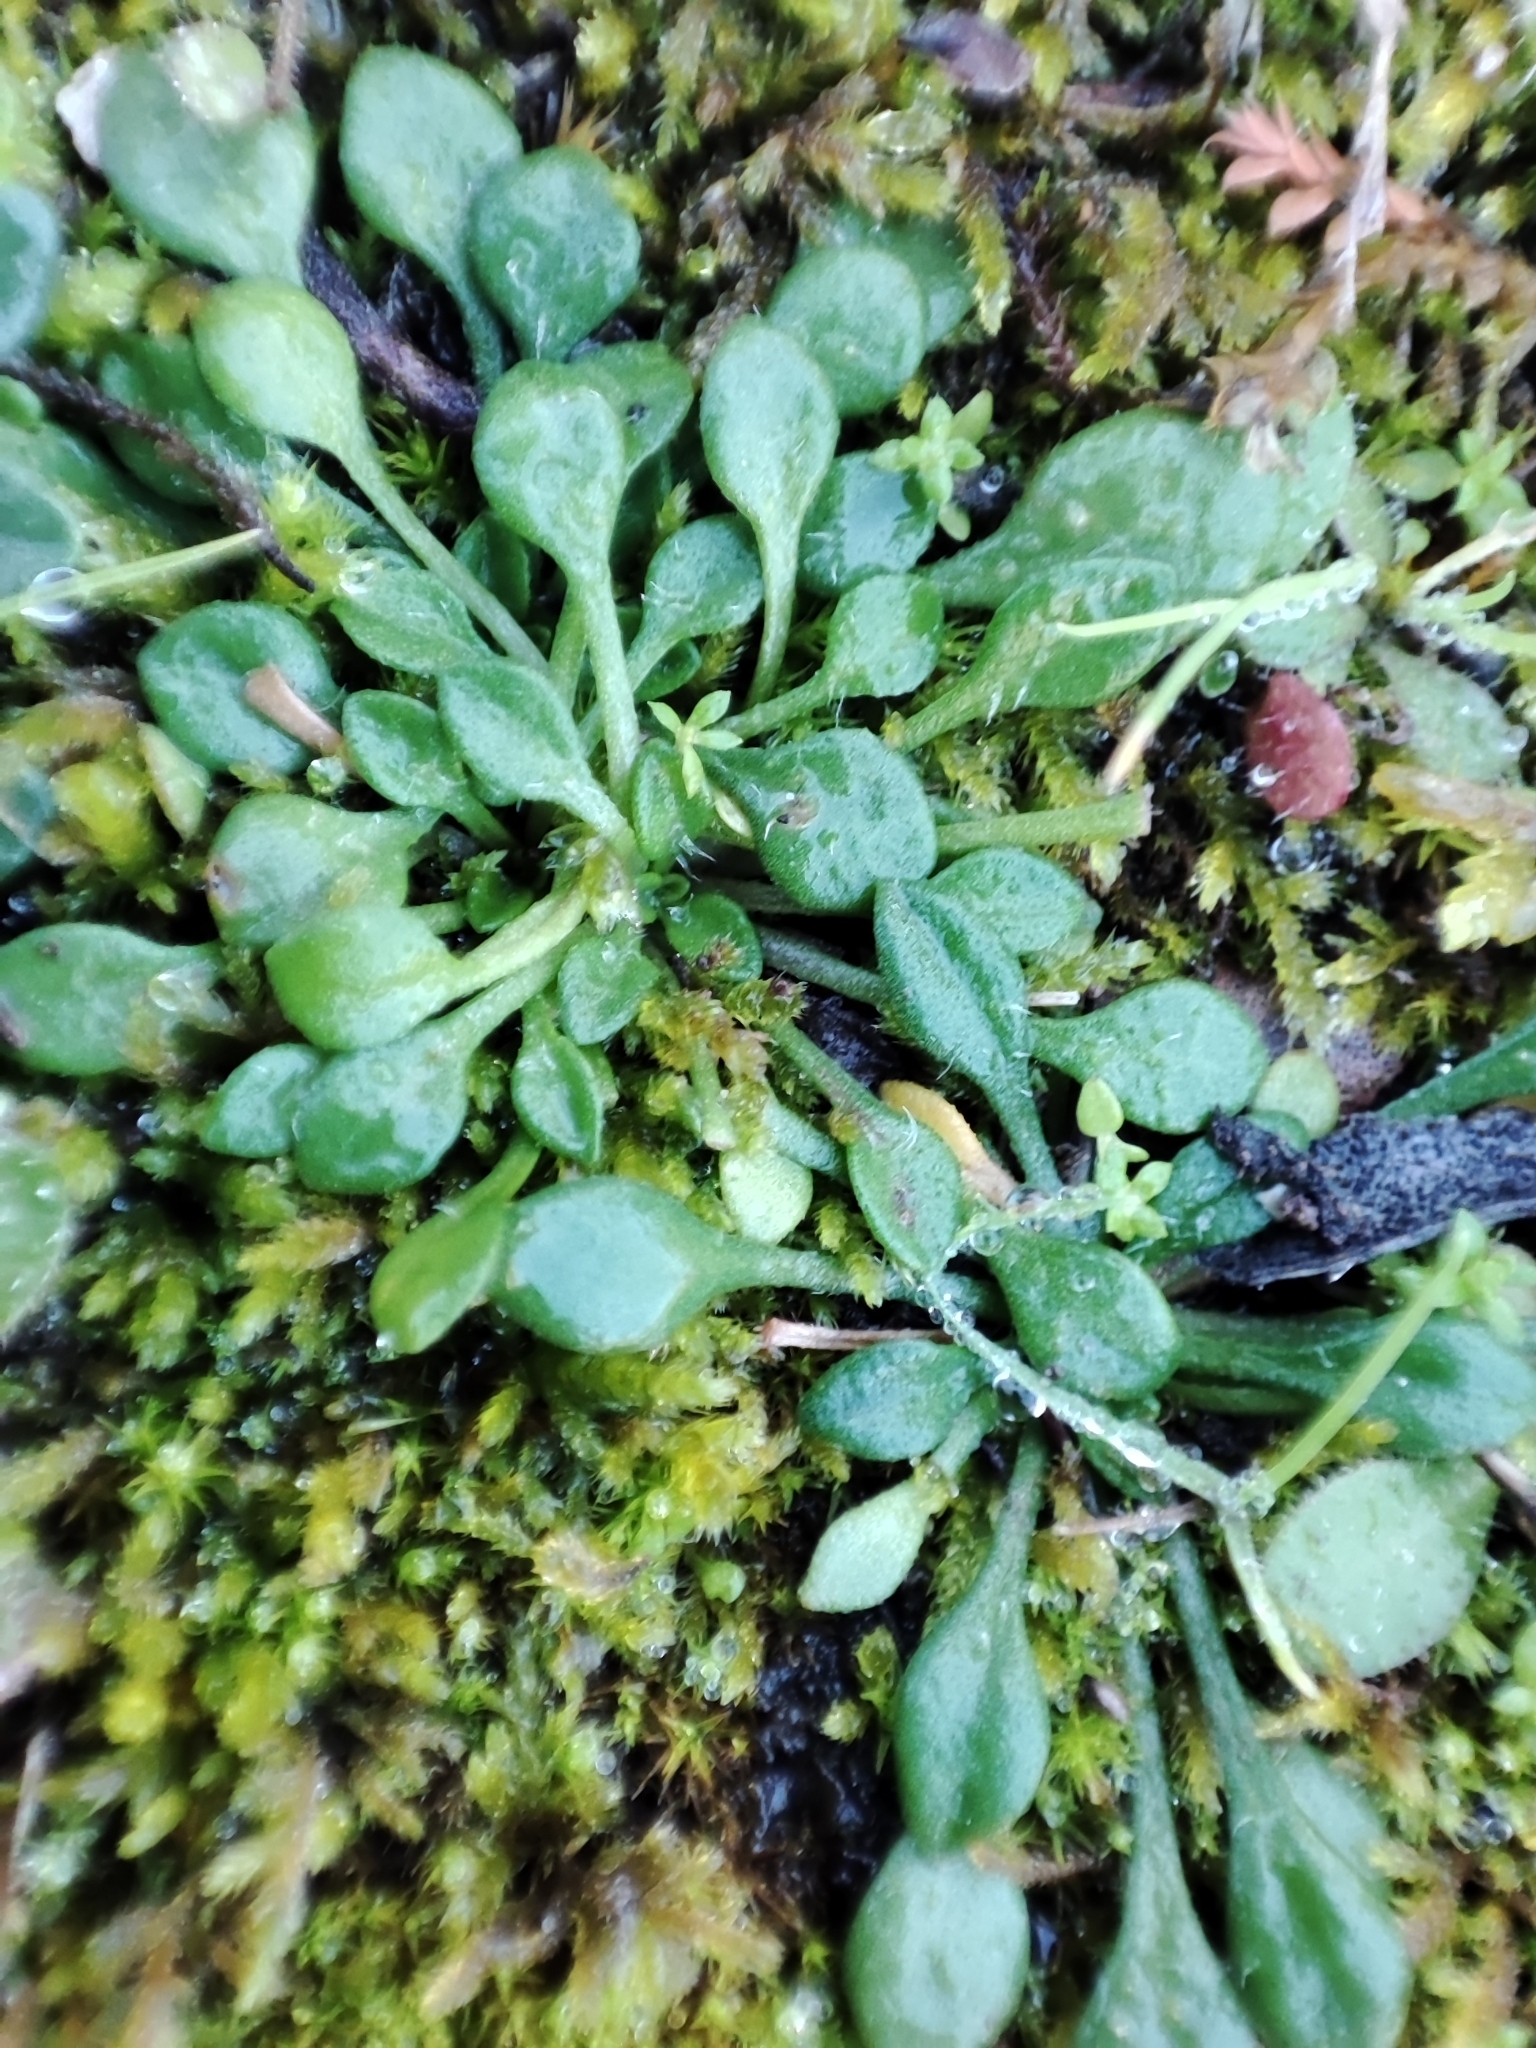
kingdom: Plantae
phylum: Tracheophyta
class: Magnoliopsida
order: Asterales
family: Asteraceae
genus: Bellium
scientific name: Bellium bellidioides
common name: False daisy
